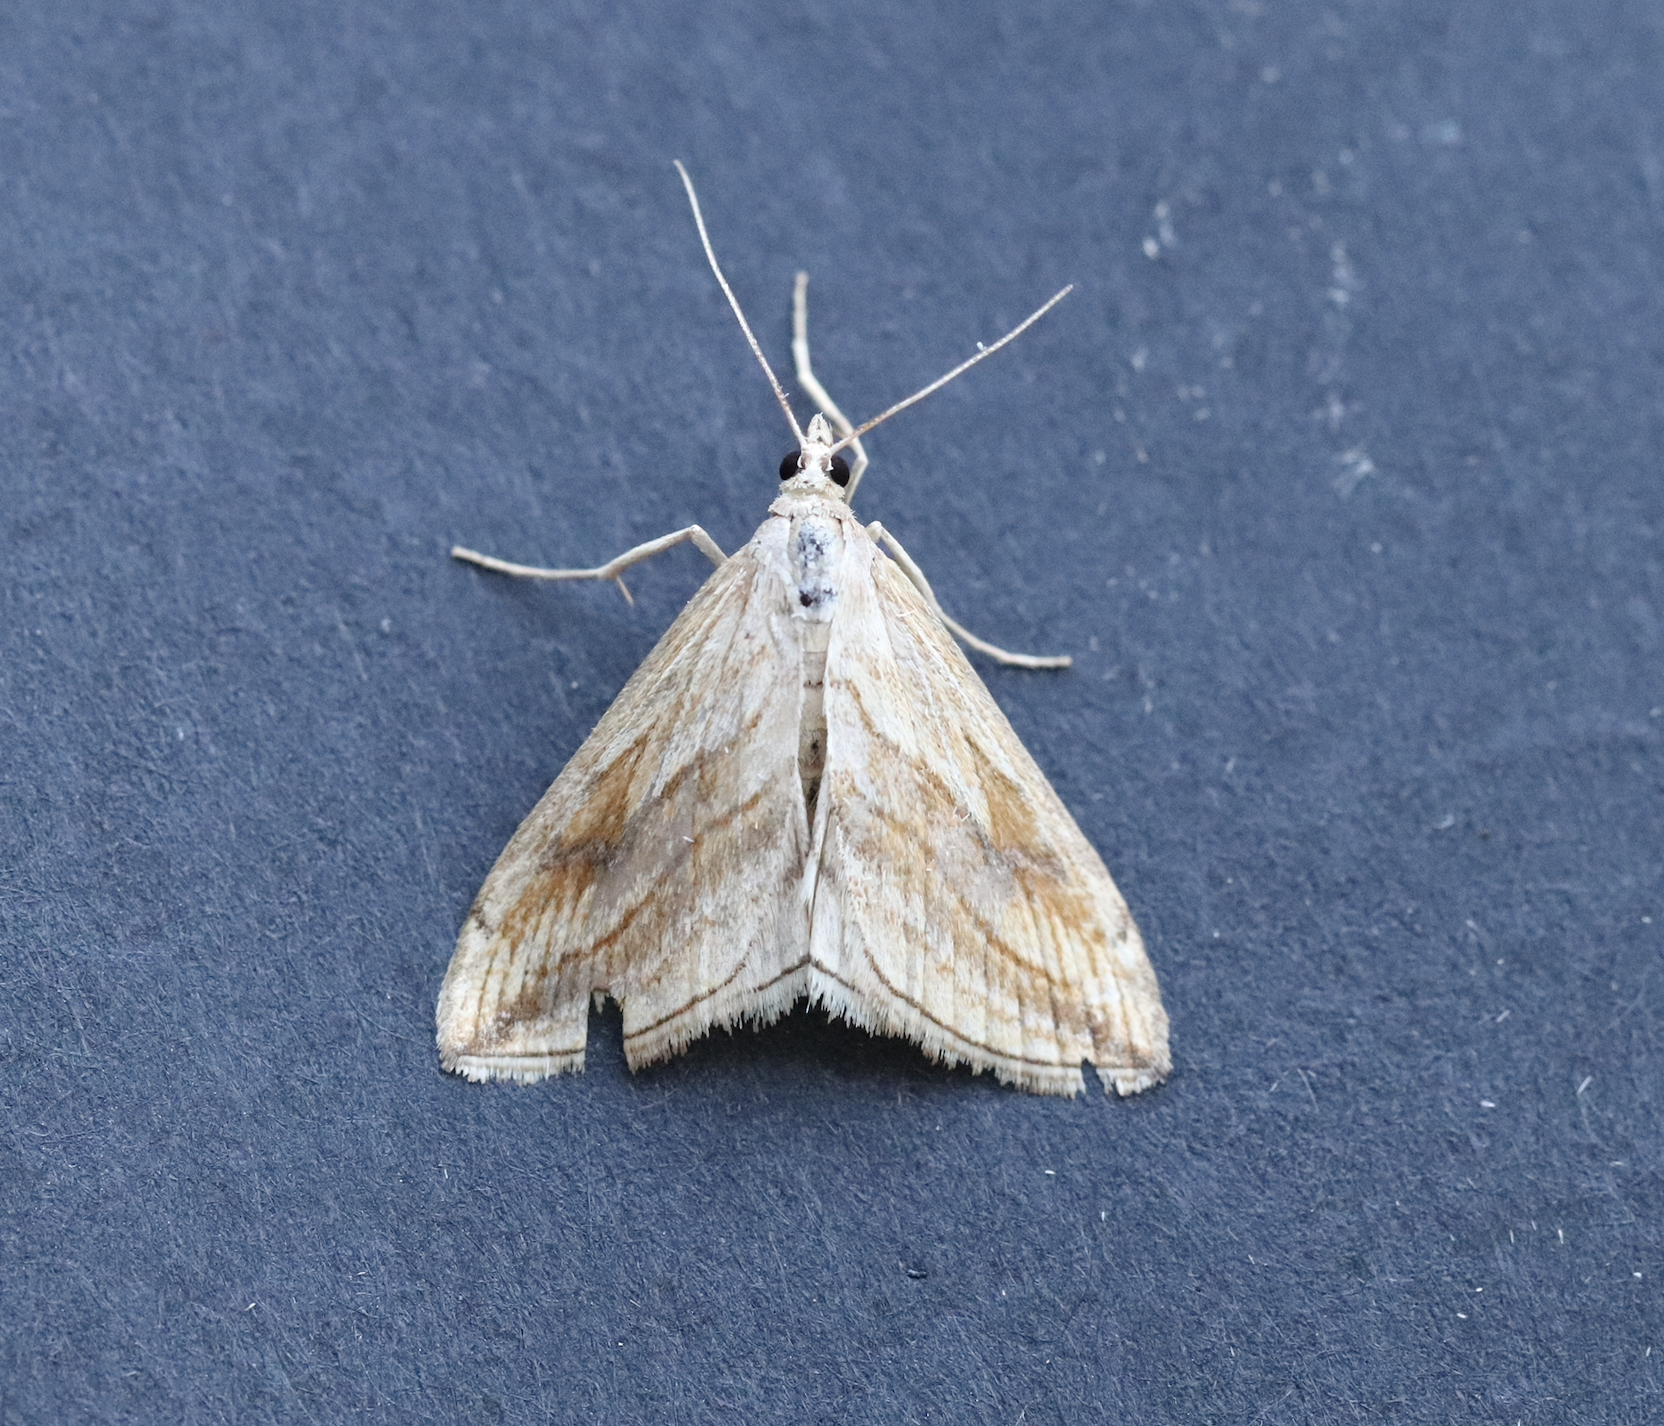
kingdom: Animalia
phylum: Arthropoda
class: Insecta
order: Lepidoptera
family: Crambidae
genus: Evergestis
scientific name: Evergestis forficalis
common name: Garden pebble
